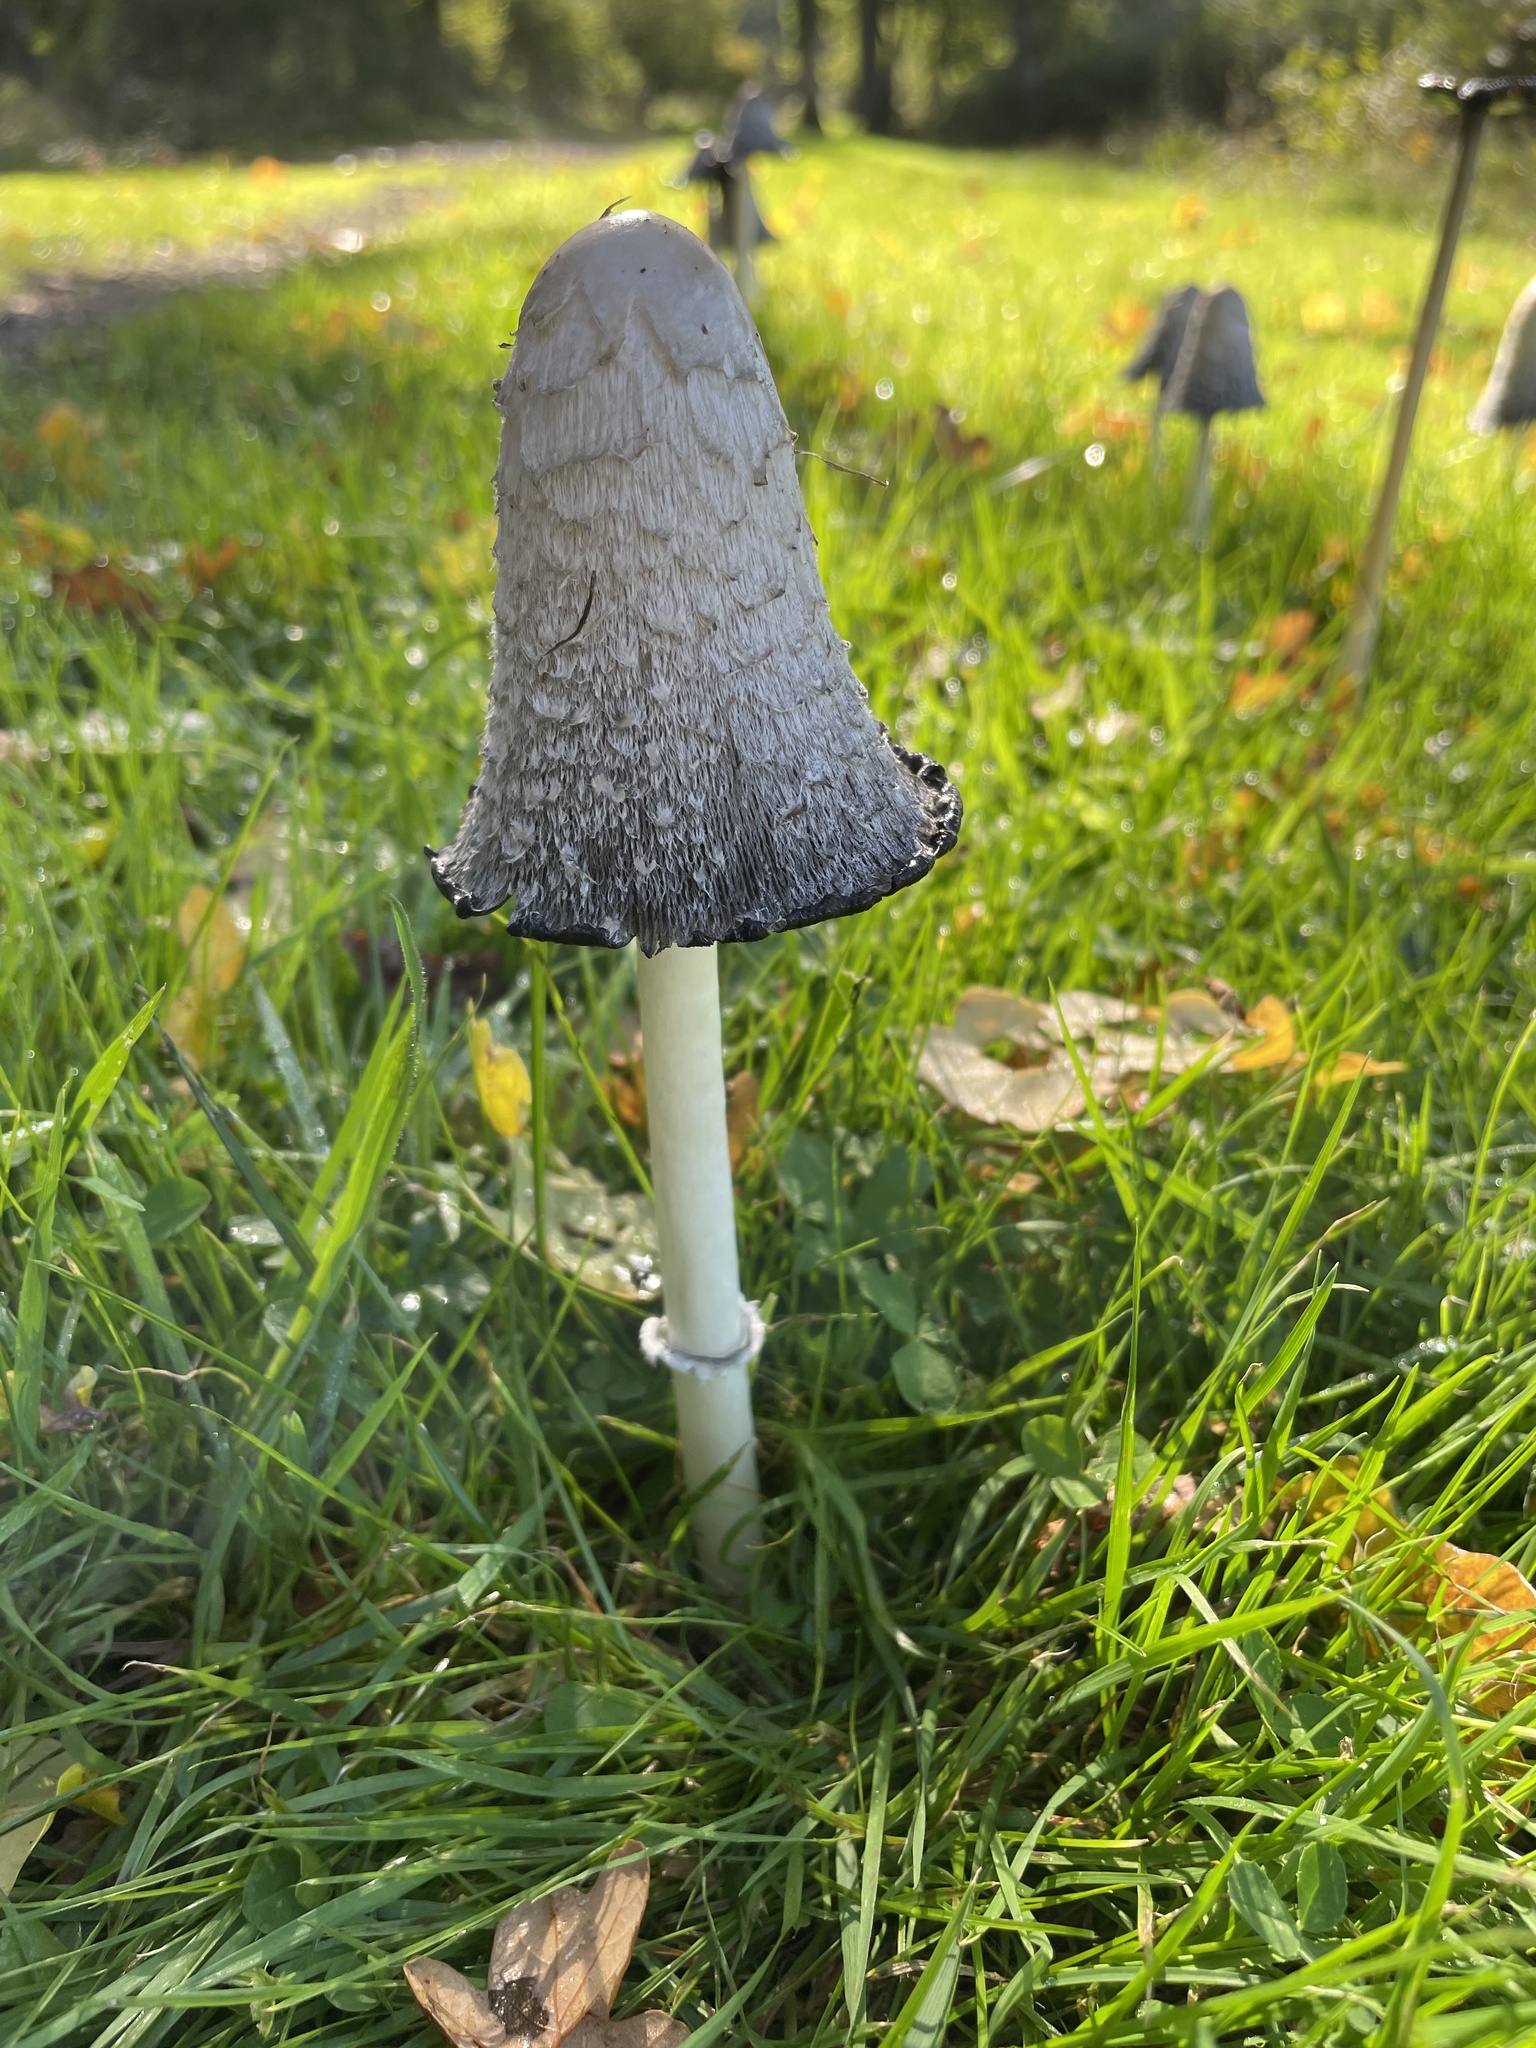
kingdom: Fungi
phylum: Basidiomycota
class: Agaricomycetes
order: Agaricales
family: Agaricaceae
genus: Coprinus
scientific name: Coprinus comatus
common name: Lawyer's wig
